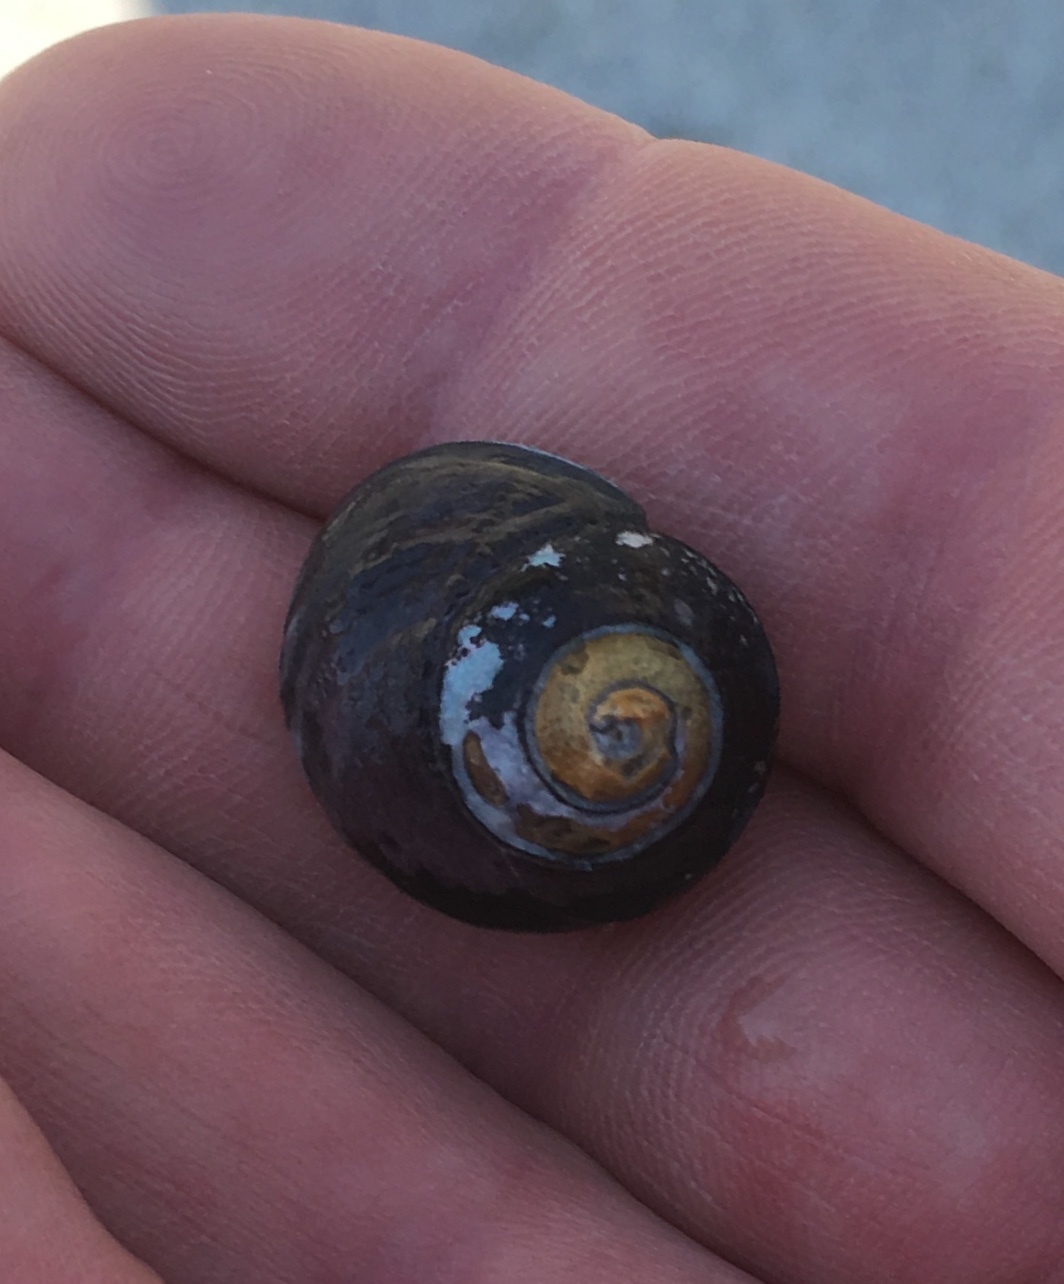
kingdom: Animalia
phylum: Mollusca
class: Gastropoda
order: Trochida
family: Tegulidae
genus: Tegula
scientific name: Tegula funebralis
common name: Black tegula
